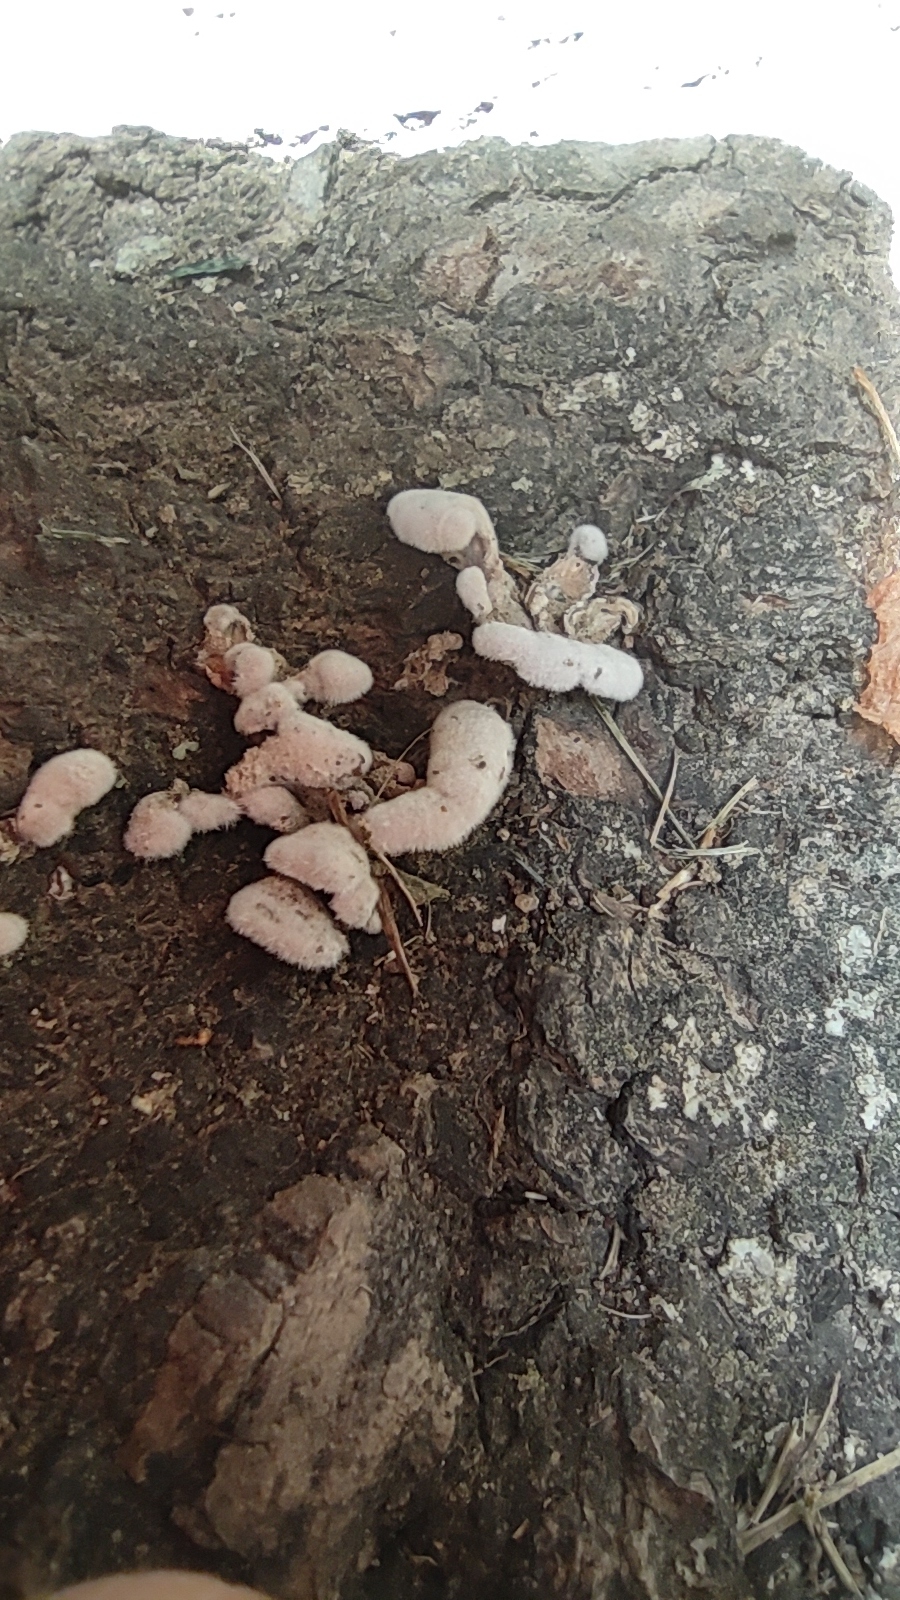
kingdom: Fungi
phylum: Basidiomycota
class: Agaricomycetes
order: Agaricales
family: Schizophyllaceae
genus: Schizophyllum
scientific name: Schizophyllum commune
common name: Common porecrust
